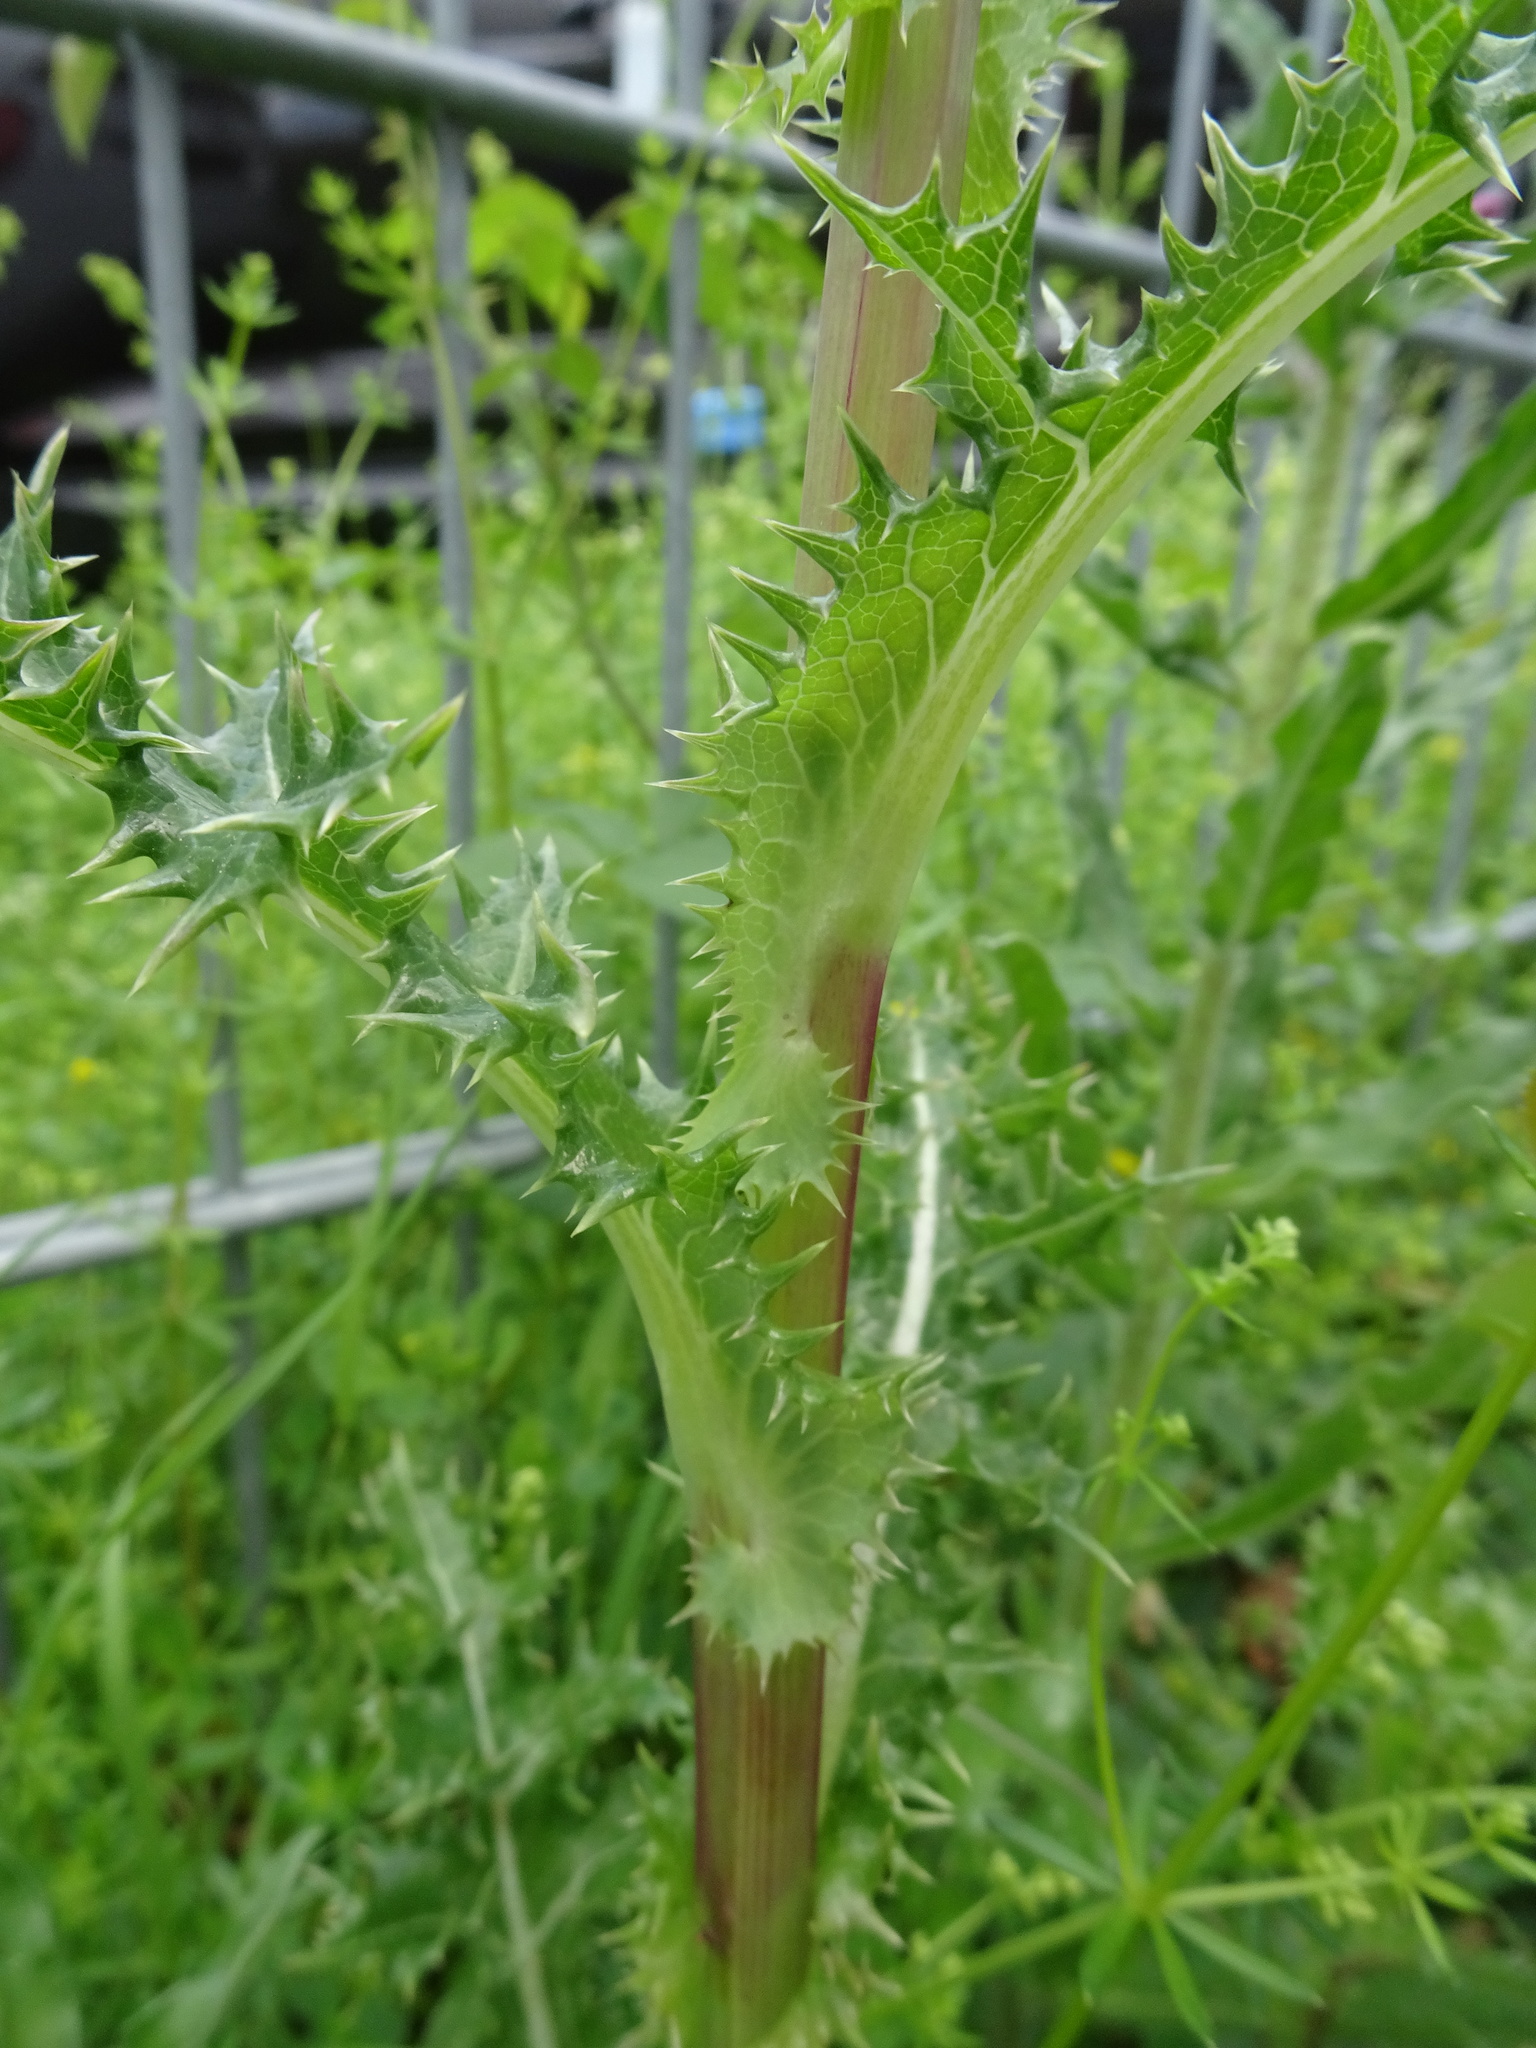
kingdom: Plantae
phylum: Tracheophyta
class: Magnoliopsida
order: Asterales
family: Asteraceae
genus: Sonchus
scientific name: Sonchus asper
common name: Prickly sow-thistle
